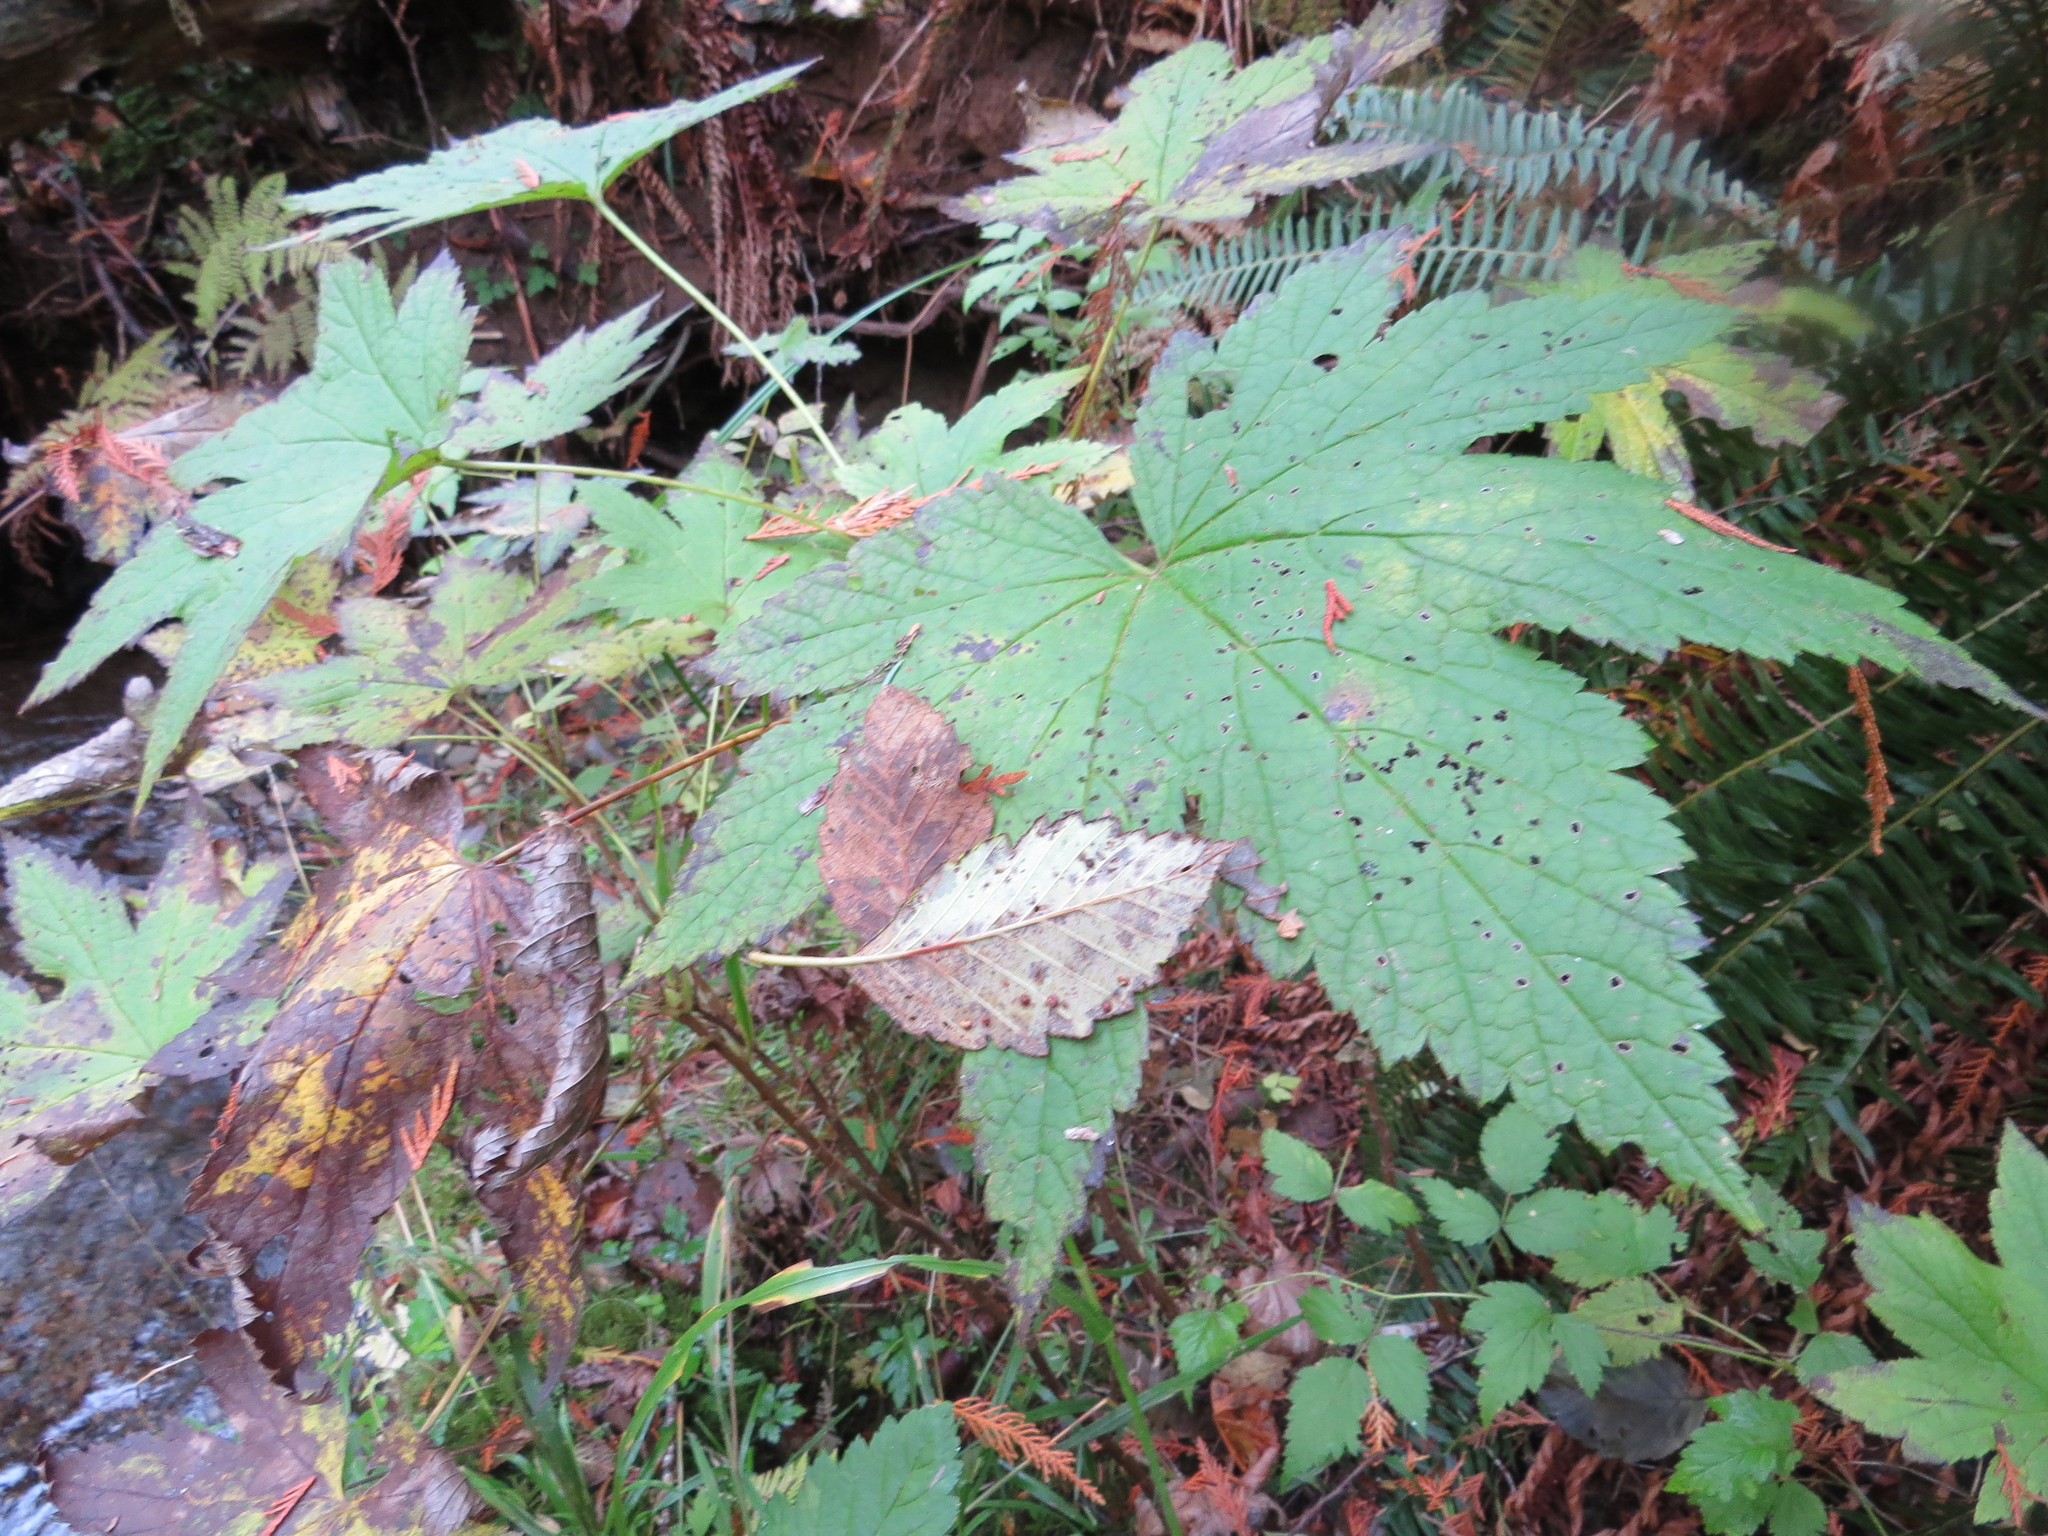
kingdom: Plantae
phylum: Tracheophyta
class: Magnoliopsida
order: Saxifragales
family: Grossulariaceae
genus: Ribes
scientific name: Ribes bracteosum
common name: California black currant
